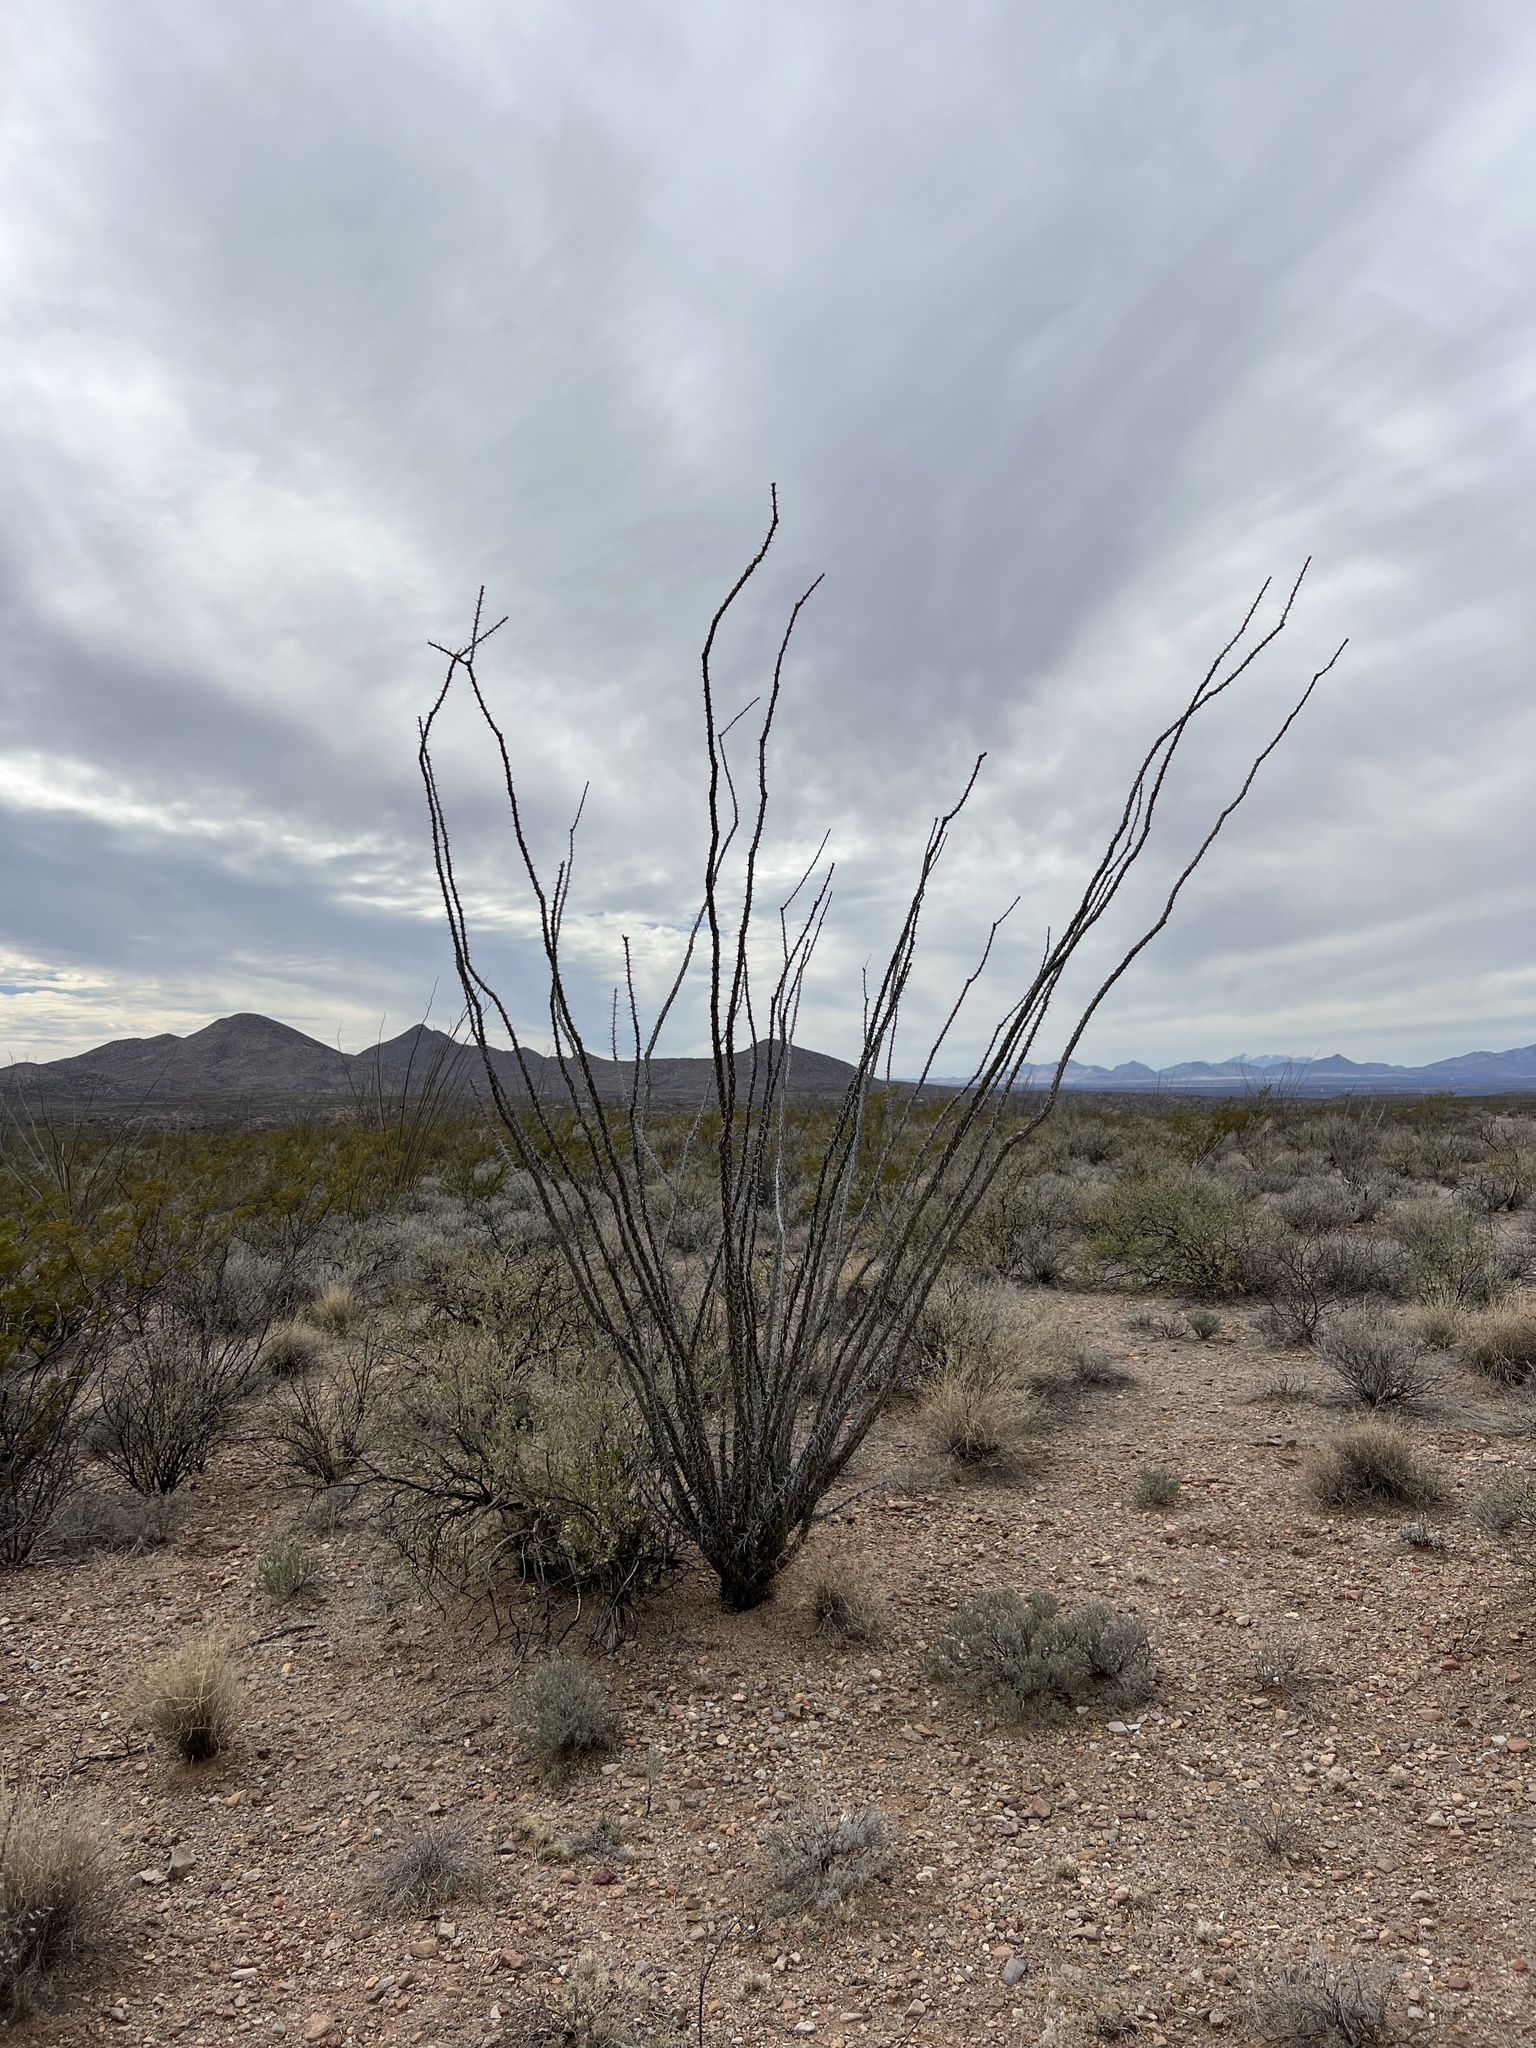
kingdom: Plantae
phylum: Tracheophyta
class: Magnoliopsida
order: Ericales
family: Fouquieriaceae
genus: Fouquieria
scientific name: Fouquieria splendens
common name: Vine-cactus
